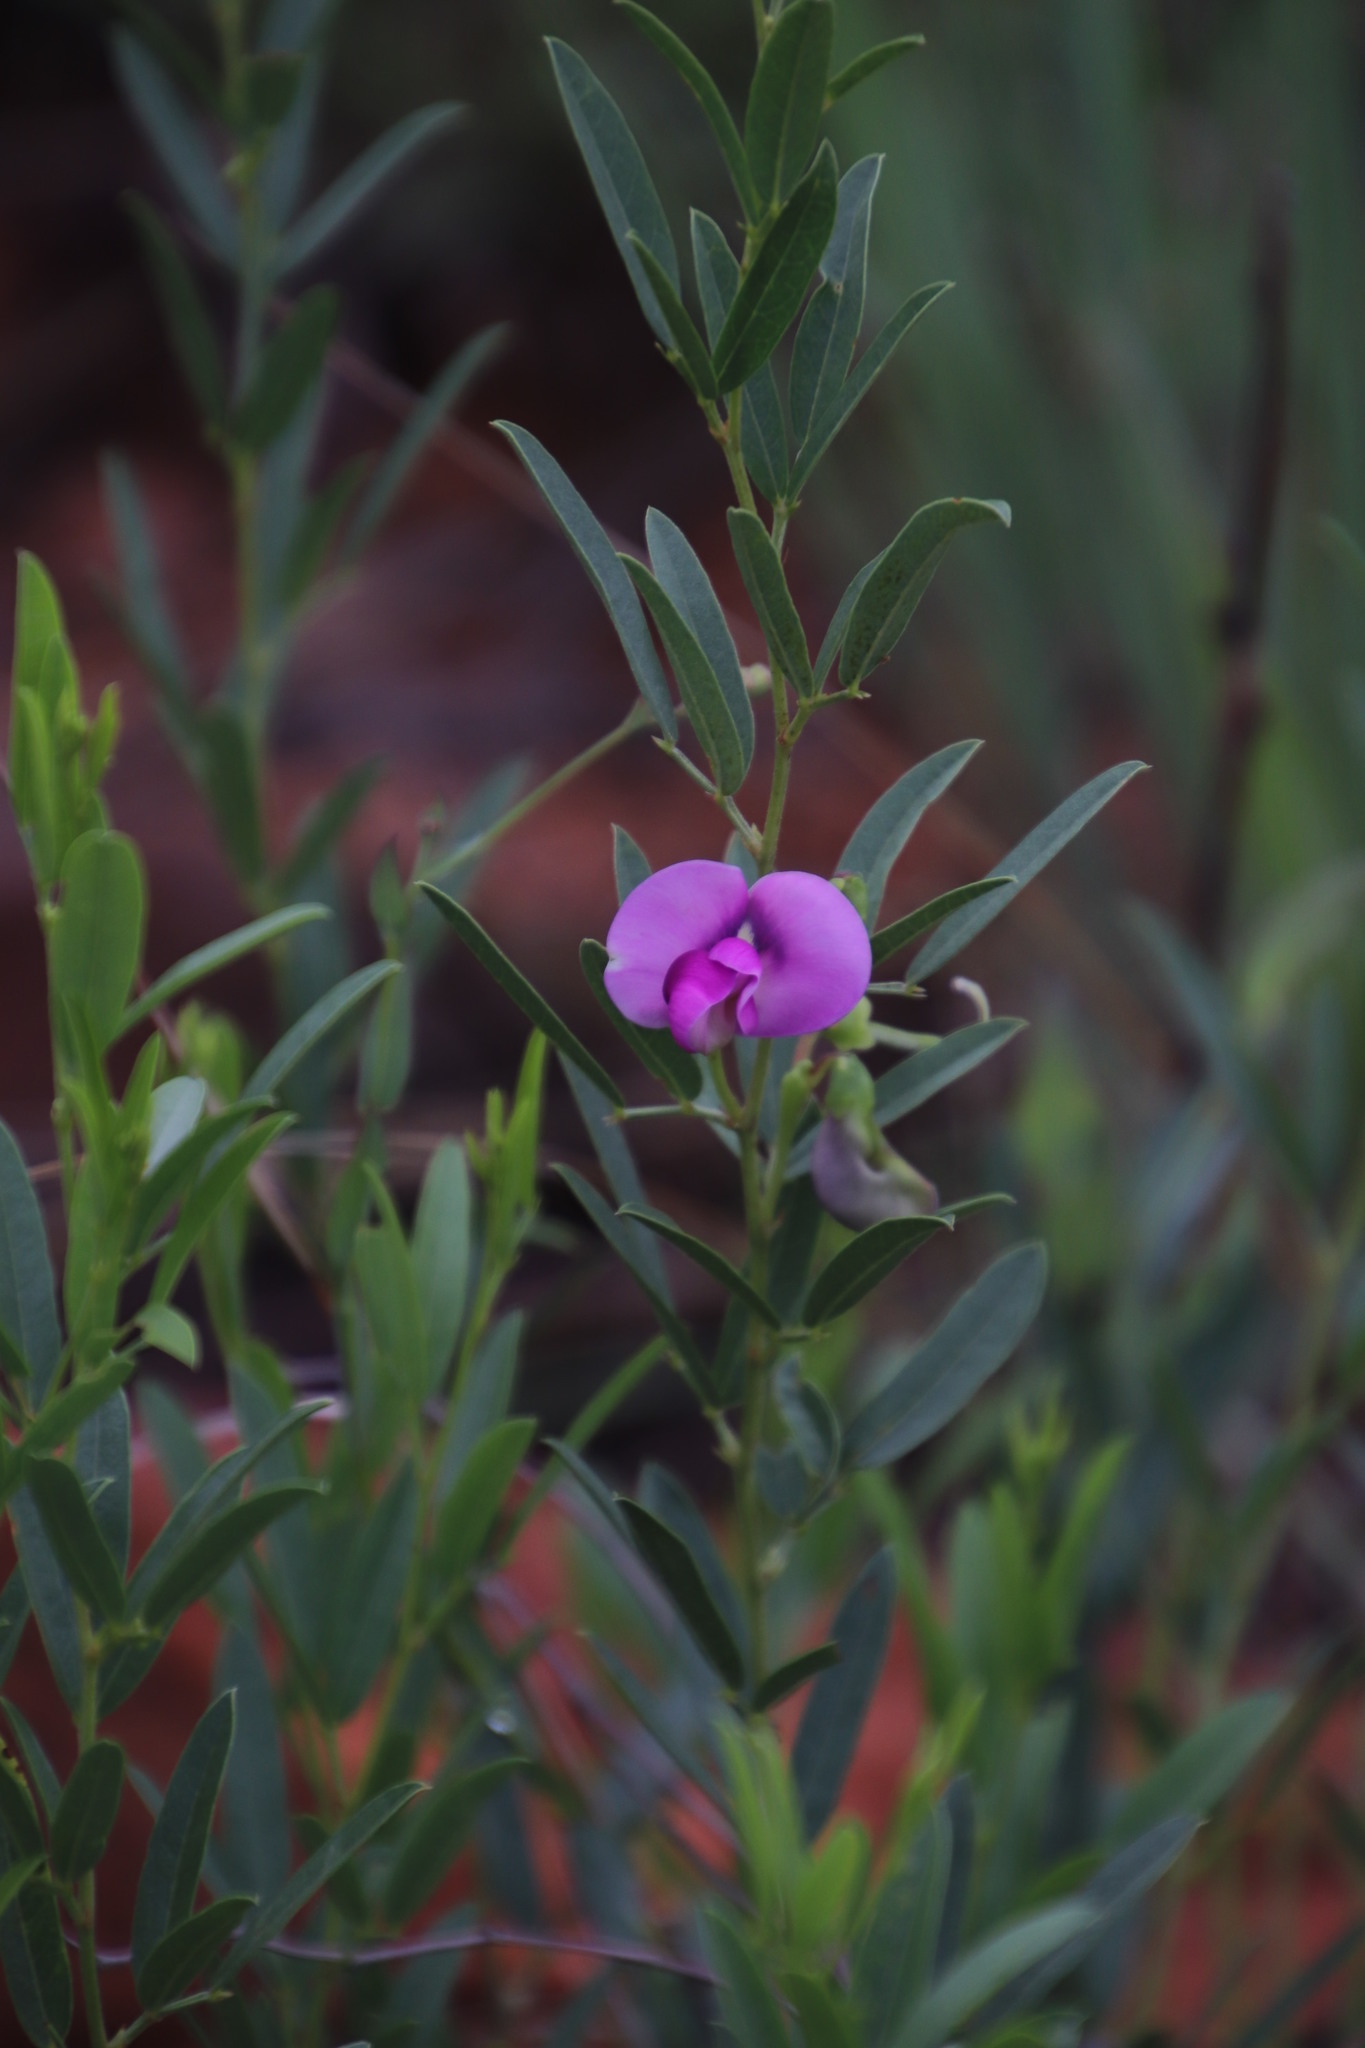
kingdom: Plantae
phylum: Tracheophyta
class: Magnoliopsida
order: Fabales
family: Fabaceae
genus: Sphenostylis
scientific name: Sphenostylis angustifolia
